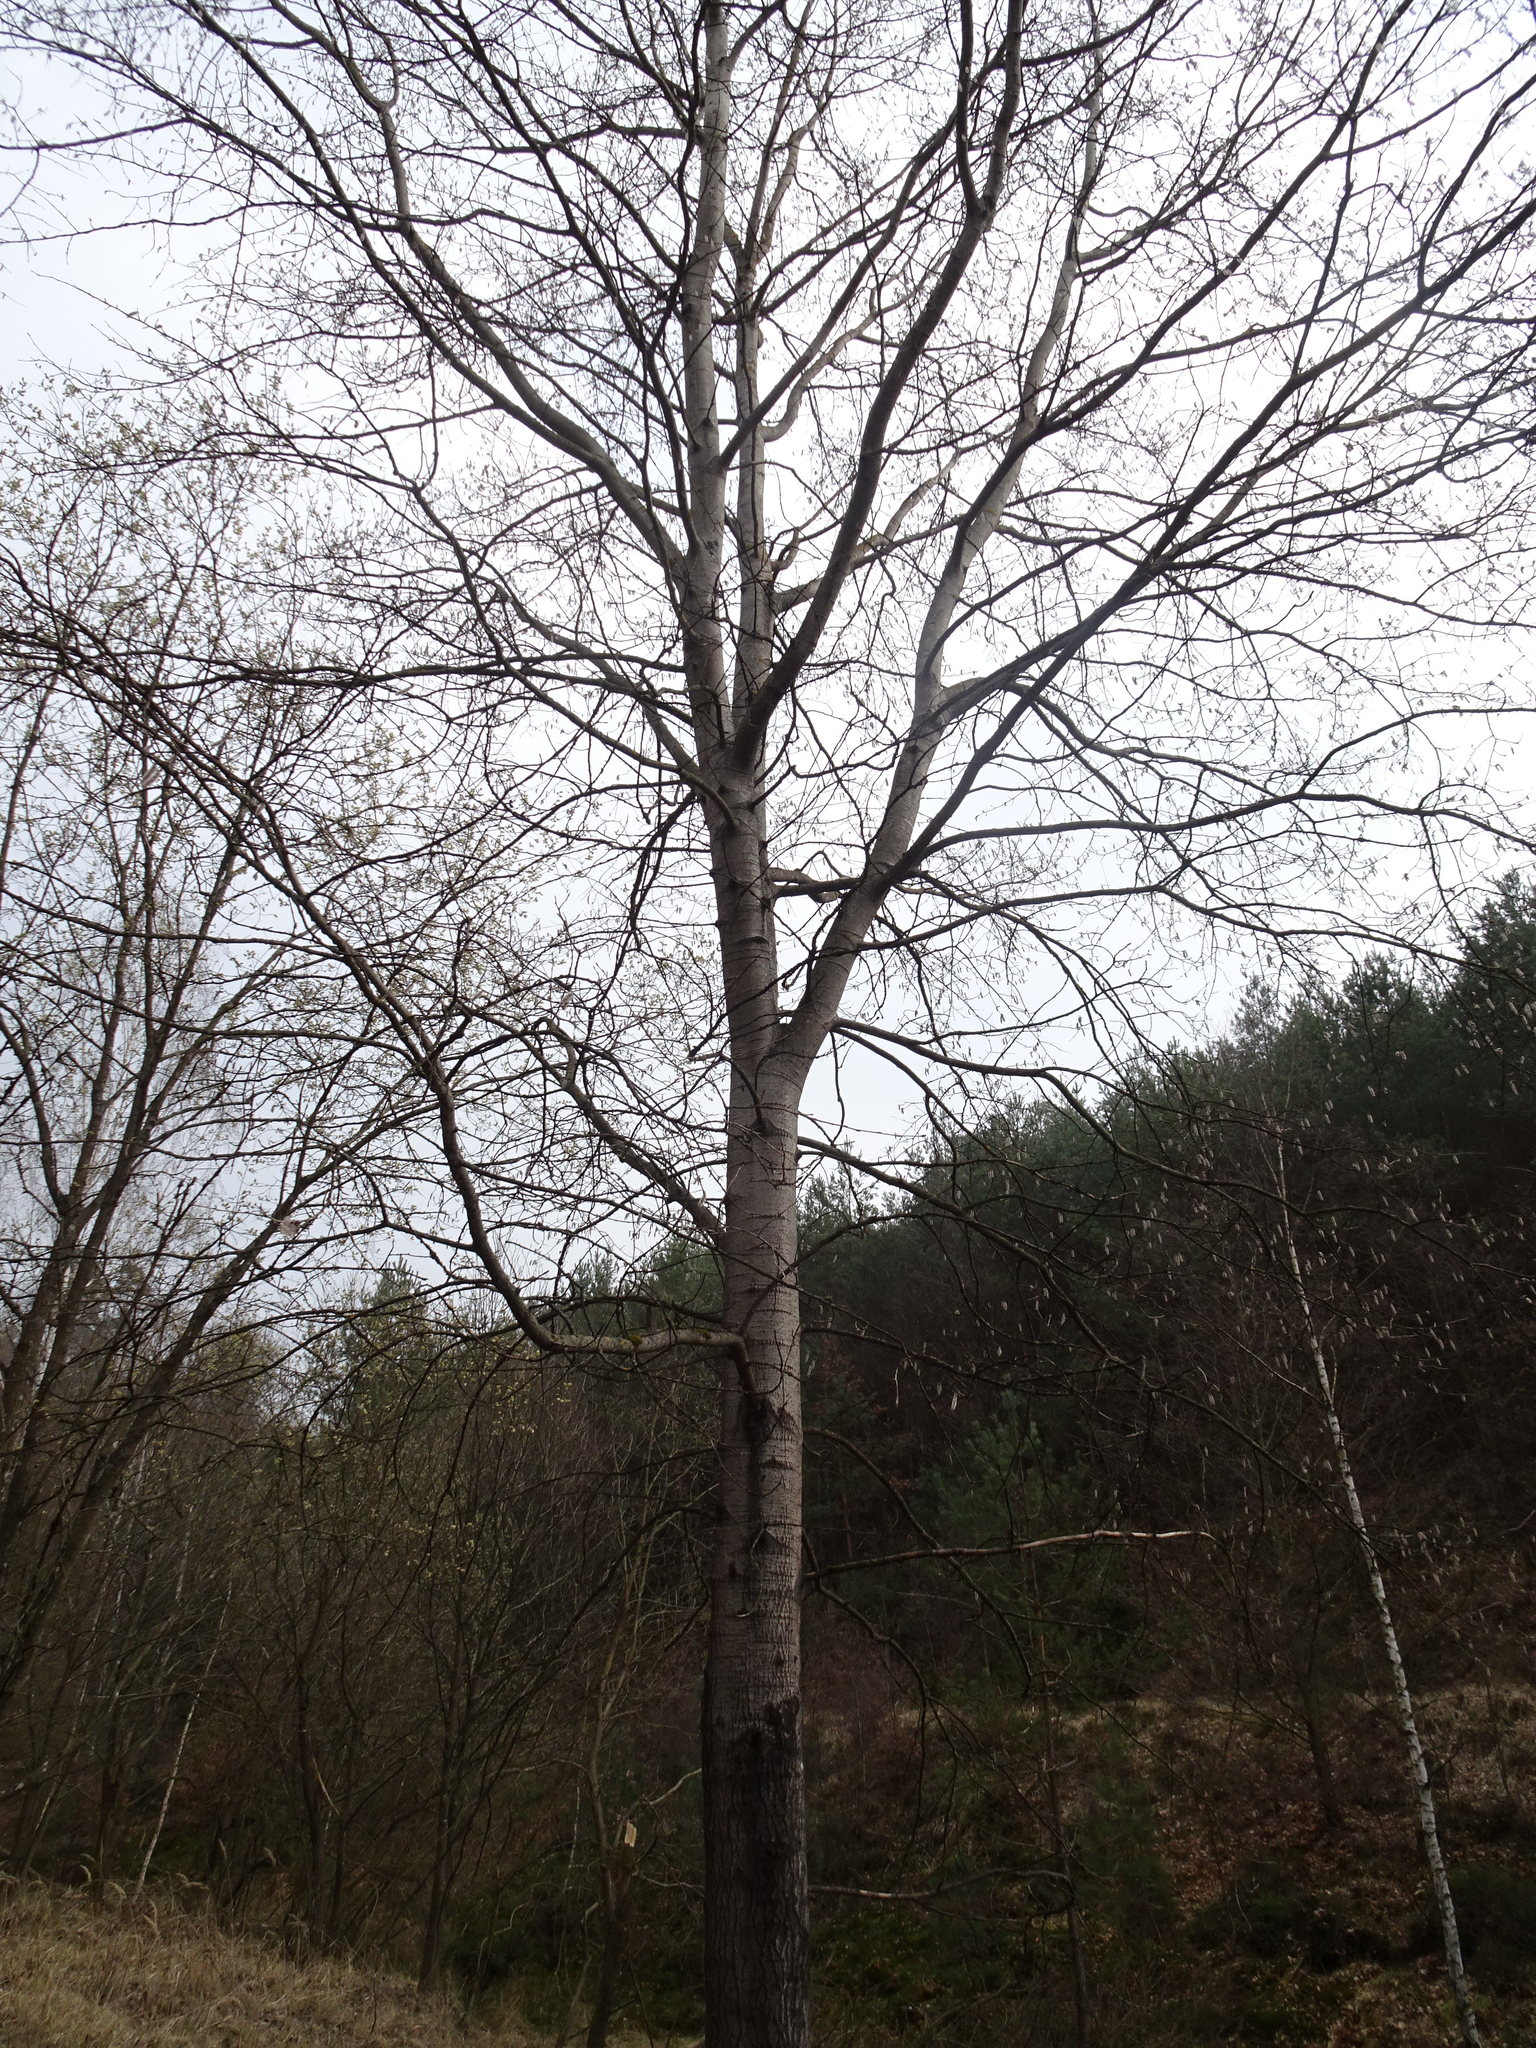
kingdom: Plantae
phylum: Tracheophyta
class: Magnoliopsida
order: Malpighiales
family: Salicaceae
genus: Populus
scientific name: Populus tremula
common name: European aspen
